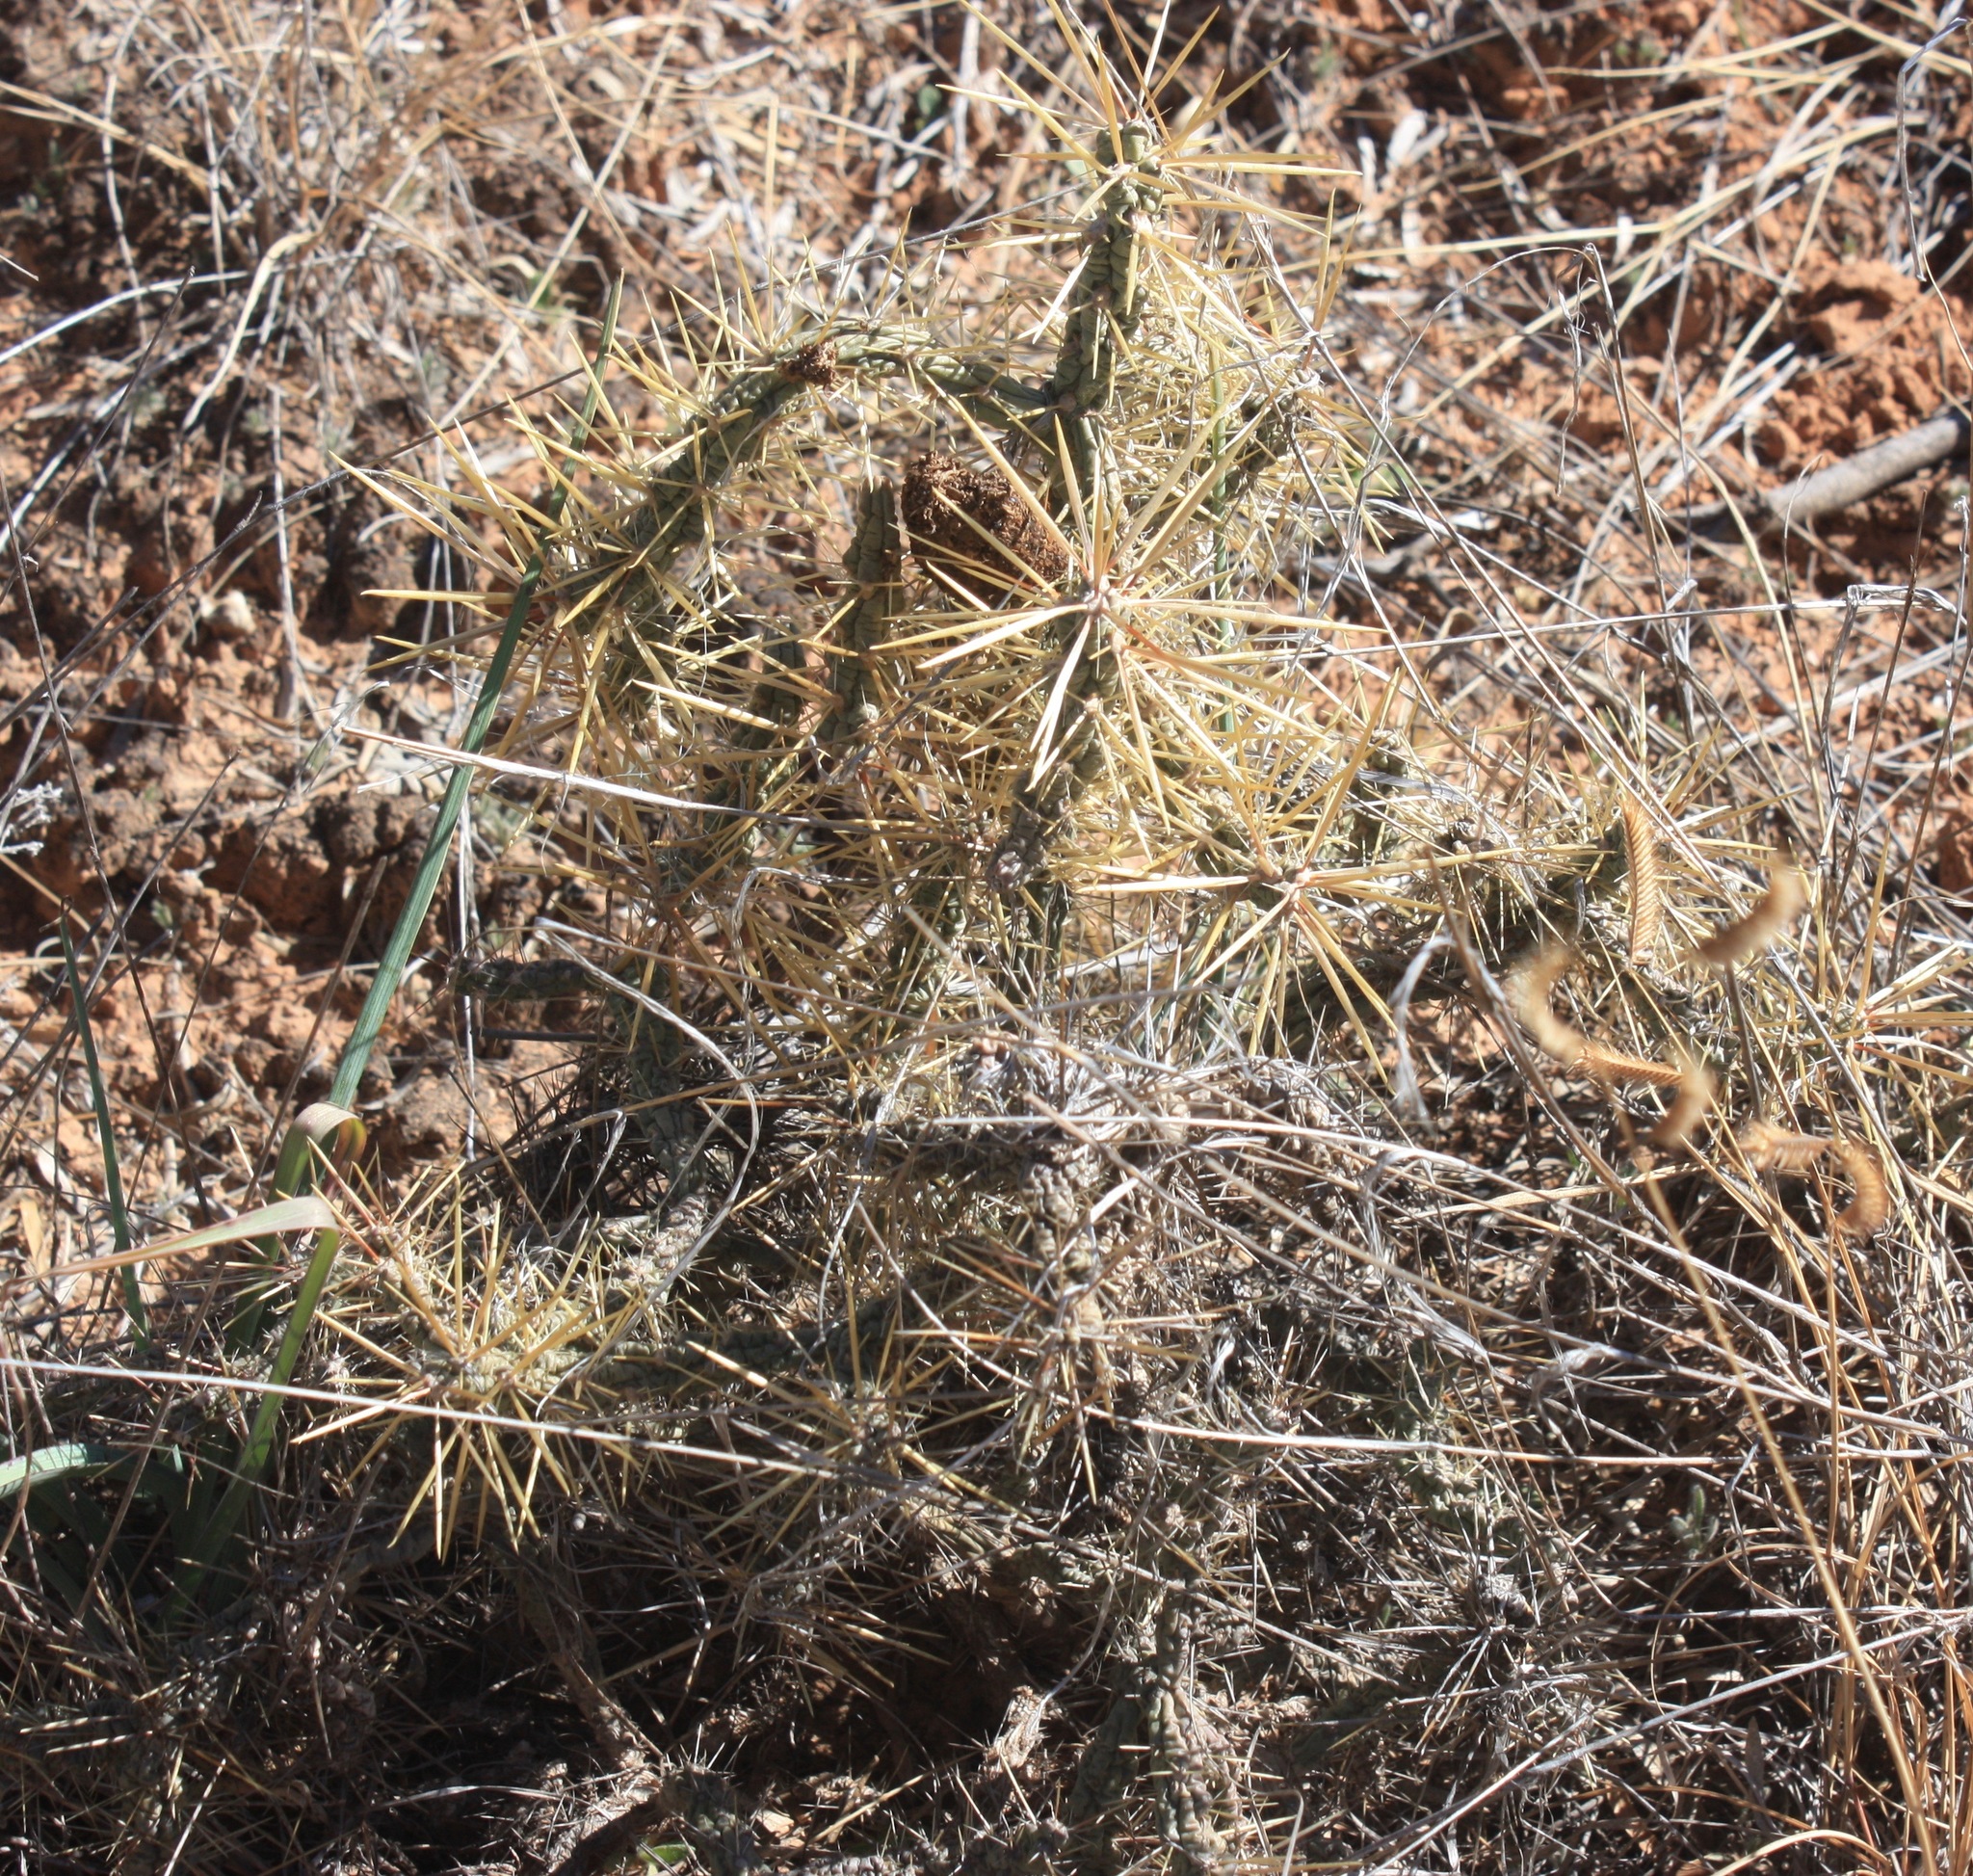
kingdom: Plantae
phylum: Tracheophyta
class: Magnoliopsida
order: Caryophyllales
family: Cactaceae
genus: Cylindropuntia
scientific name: Cylindropuntia davisii
